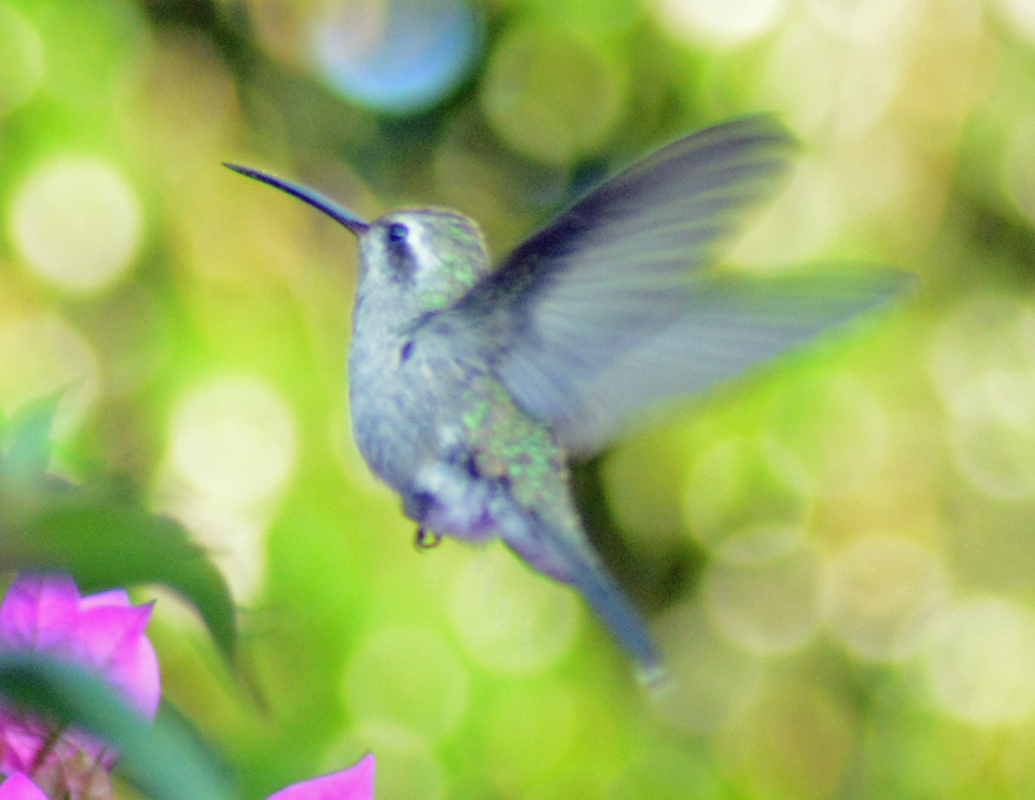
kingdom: Animalia
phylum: Chordata
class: Aves
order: Apodiformes
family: Trochilidae
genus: Cynanthus
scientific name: Cynanthus latirostris
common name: Broad-billed hummingbird
